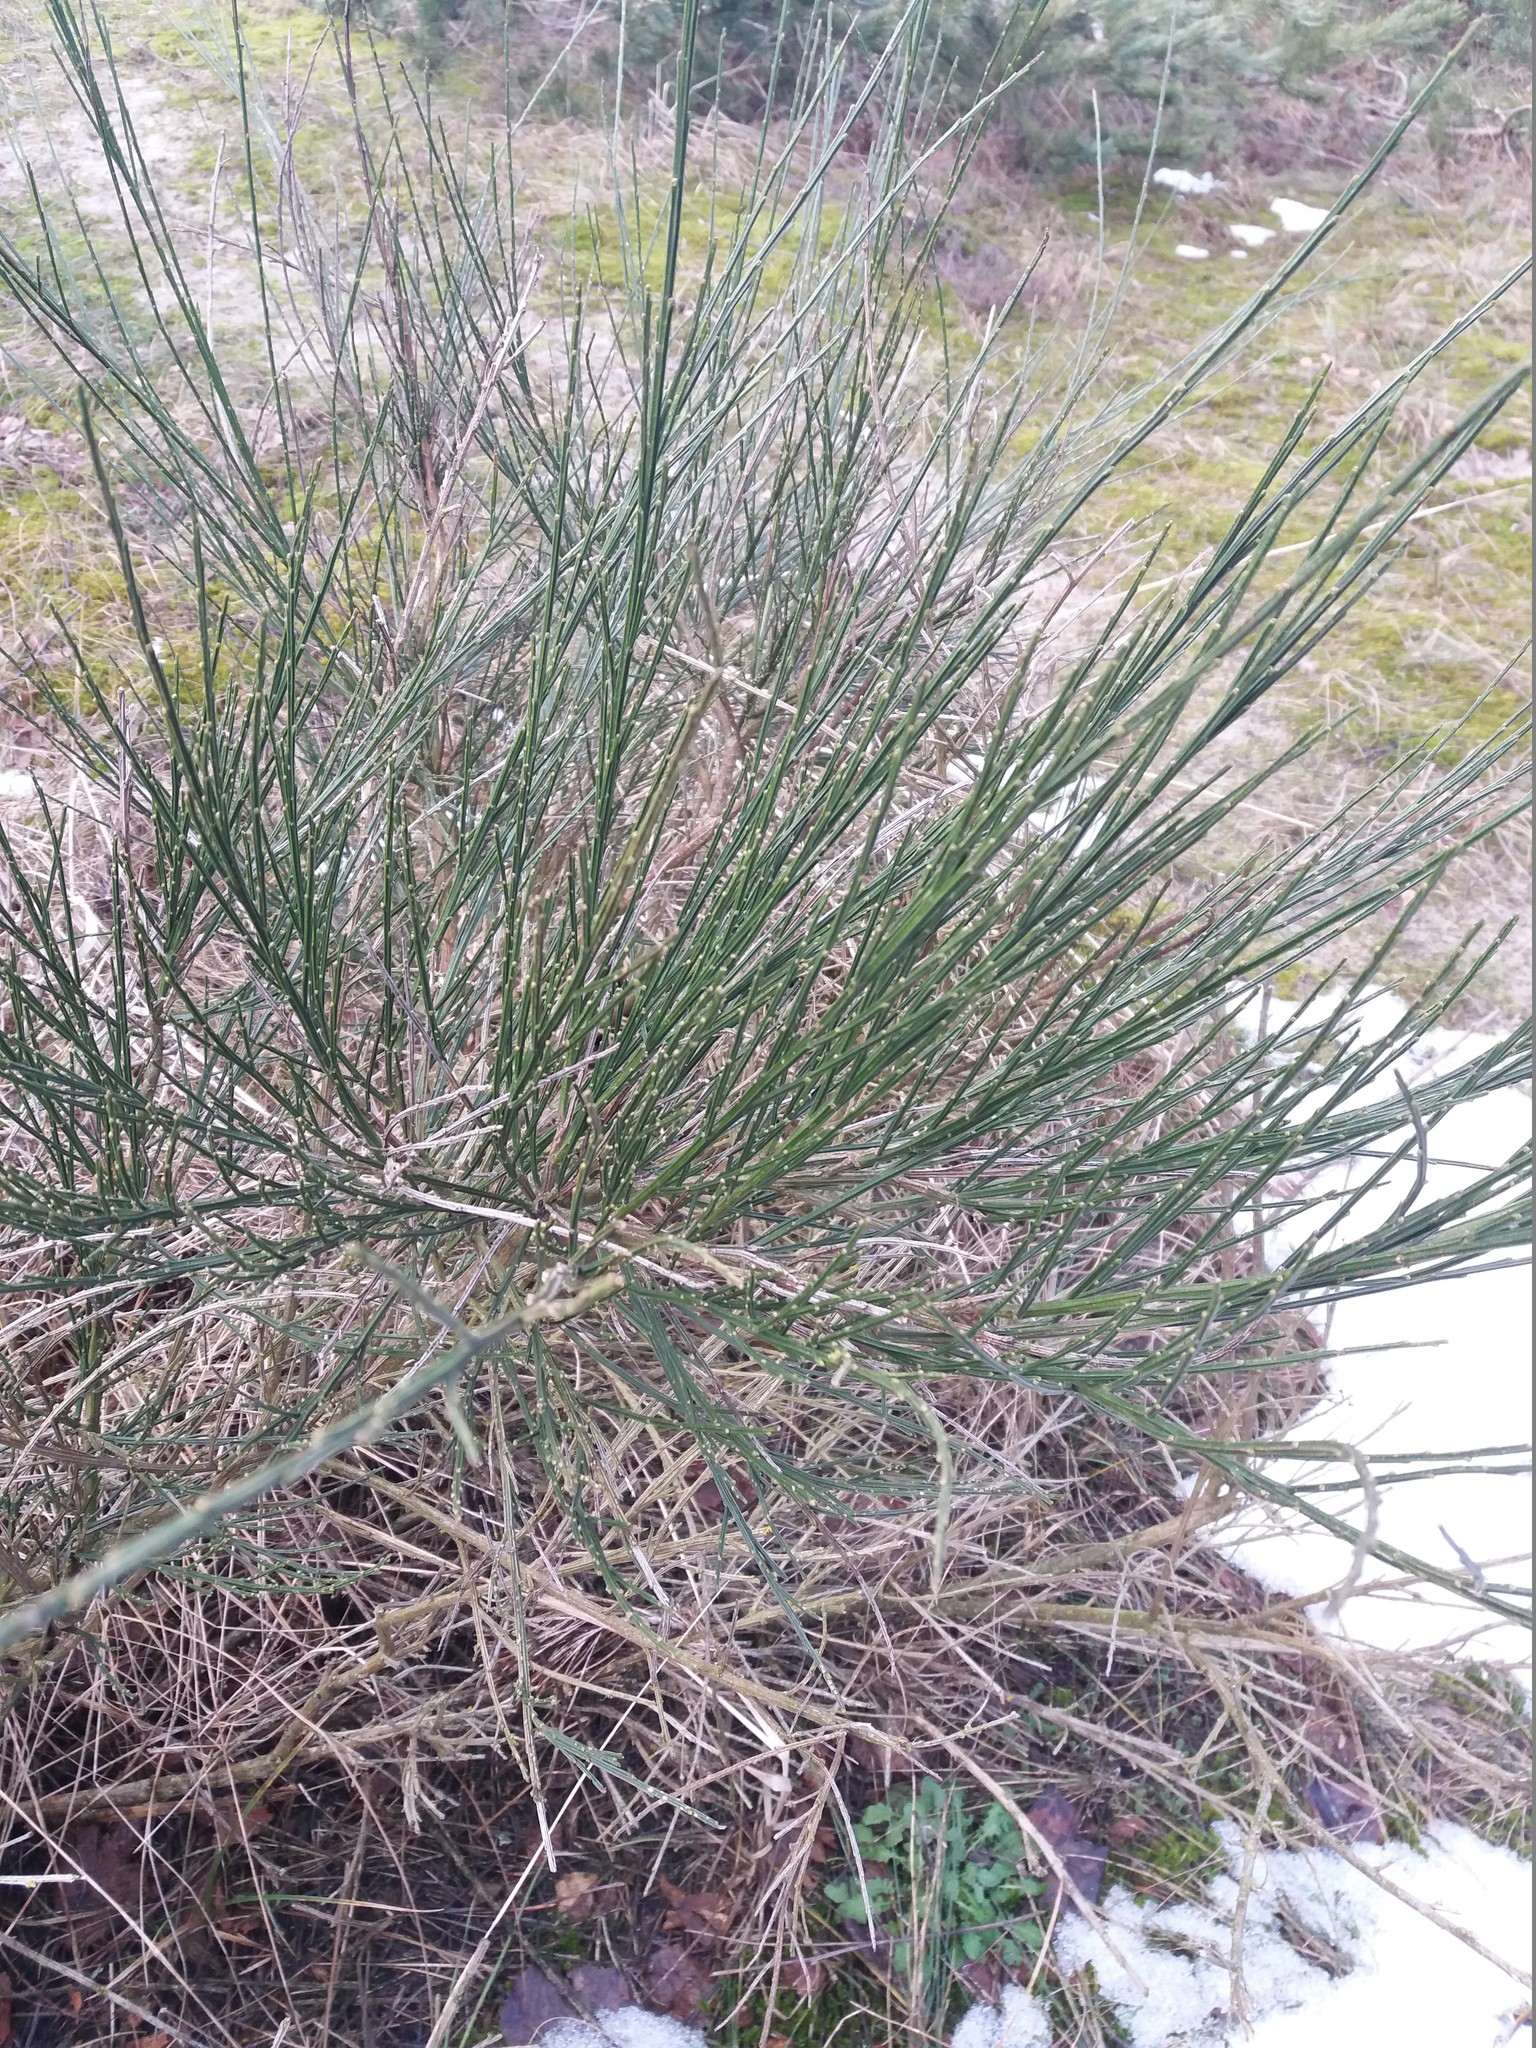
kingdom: Plantae
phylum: Tracheophyta
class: Magnoliopsida
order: Fabales
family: Fabaceae
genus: Cytisus
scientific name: Cytisus scoparius
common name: Scotch broom
